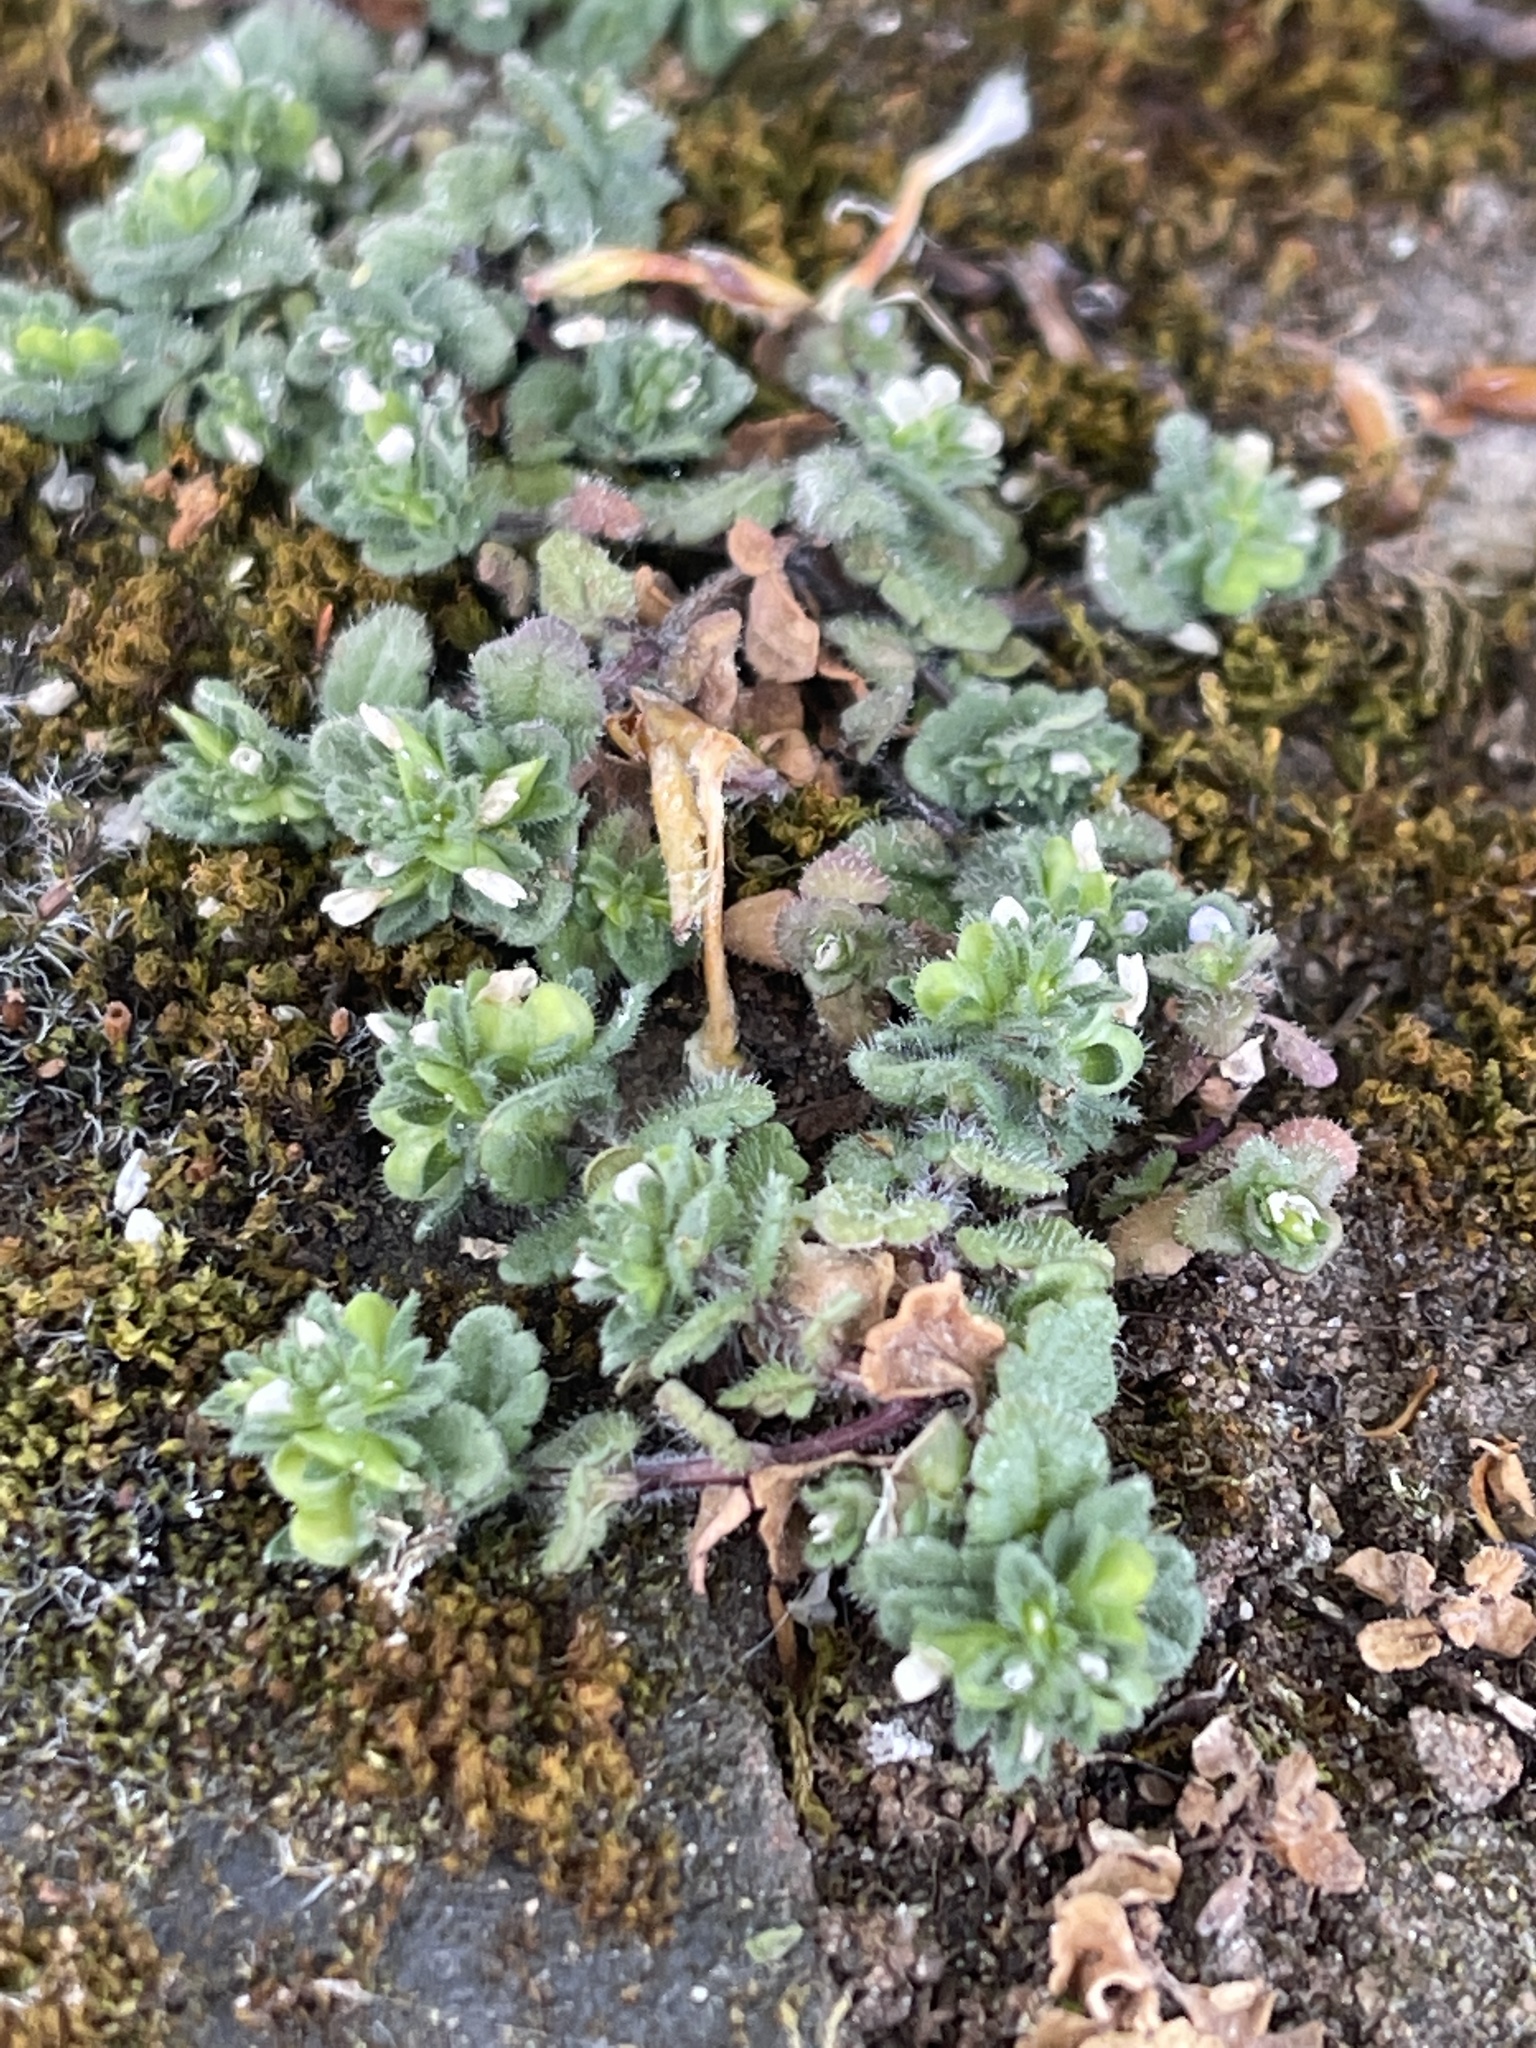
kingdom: Plantae
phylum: Tracheophyta
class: Magnoliopsida
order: Lamiales
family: Plantaginaceae
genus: Veronica
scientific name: Veronica arvensis
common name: Corn speedwell
